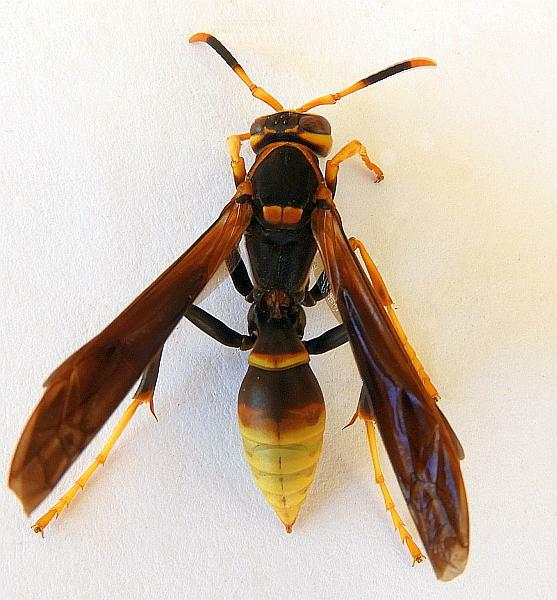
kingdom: Animalia
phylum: Arthropoda
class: Insecta
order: Hymenoptera
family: Eumenidae
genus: Polistes
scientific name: Polistes comanchus
